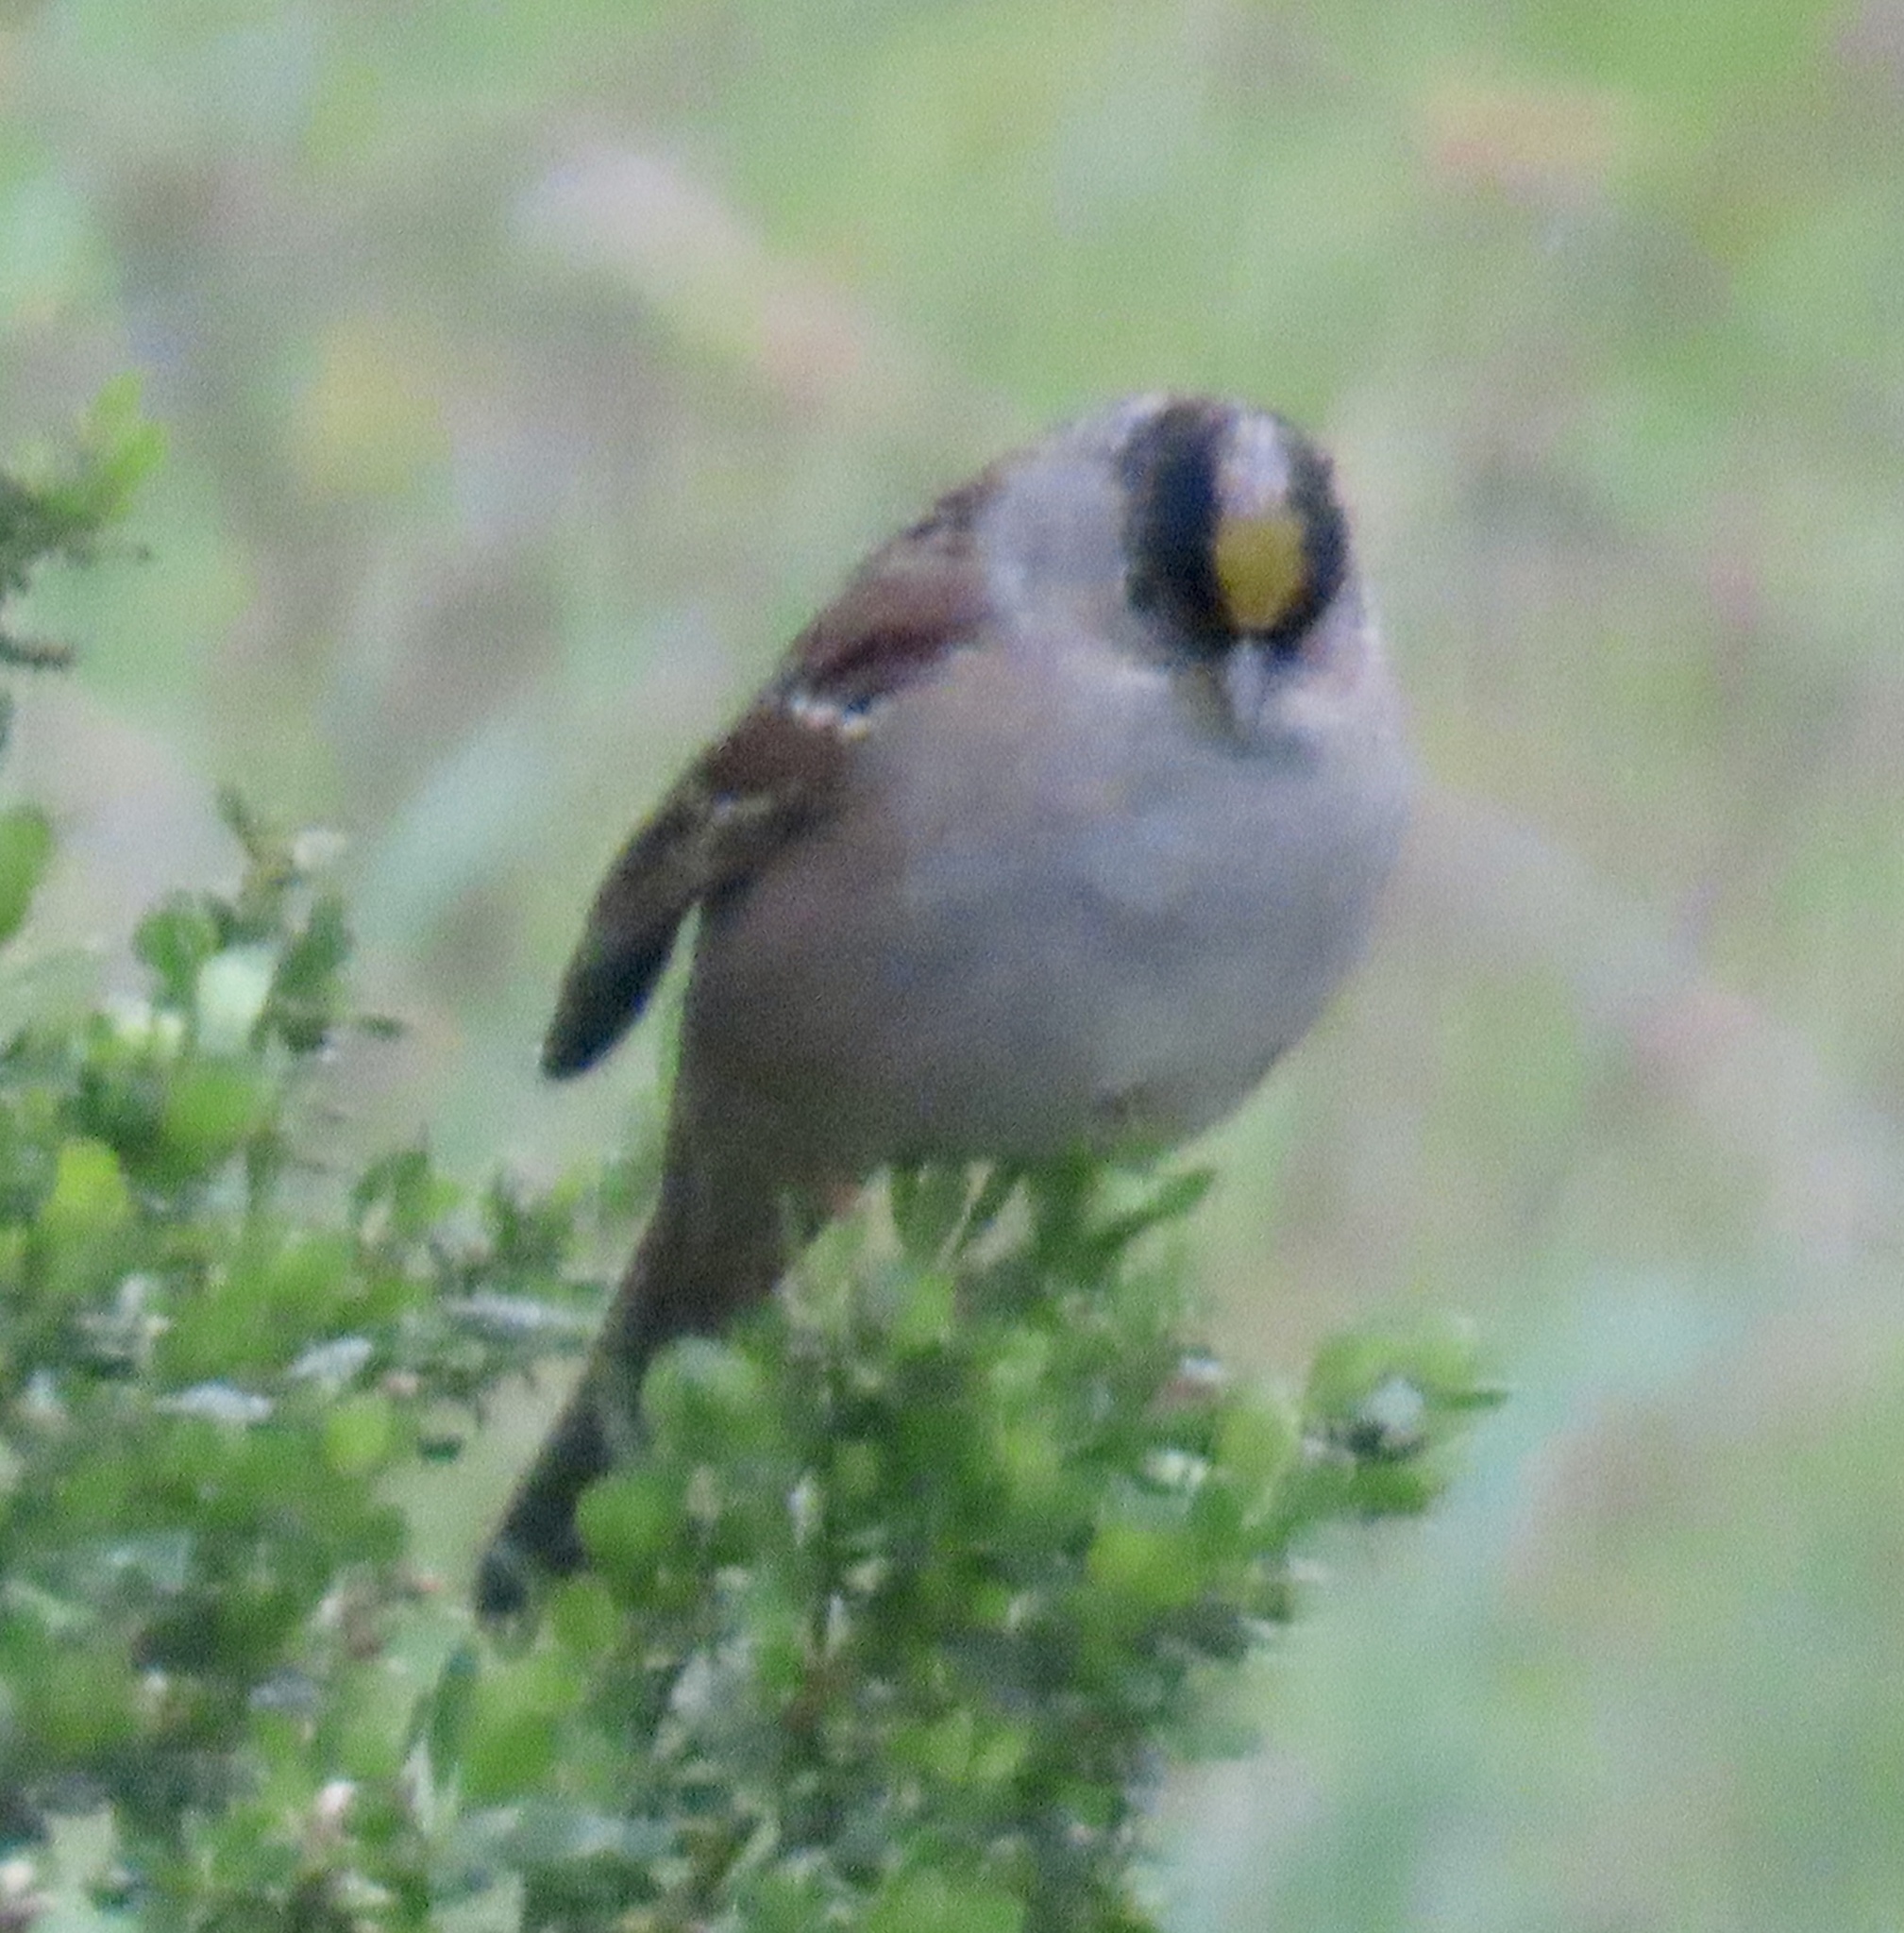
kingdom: Animalia
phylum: Chordata
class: Aves
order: Passeriformes
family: Passerellidae
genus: Zonotrichia
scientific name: Zonotrichia atricapilla
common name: Golden-crowned sparrow
